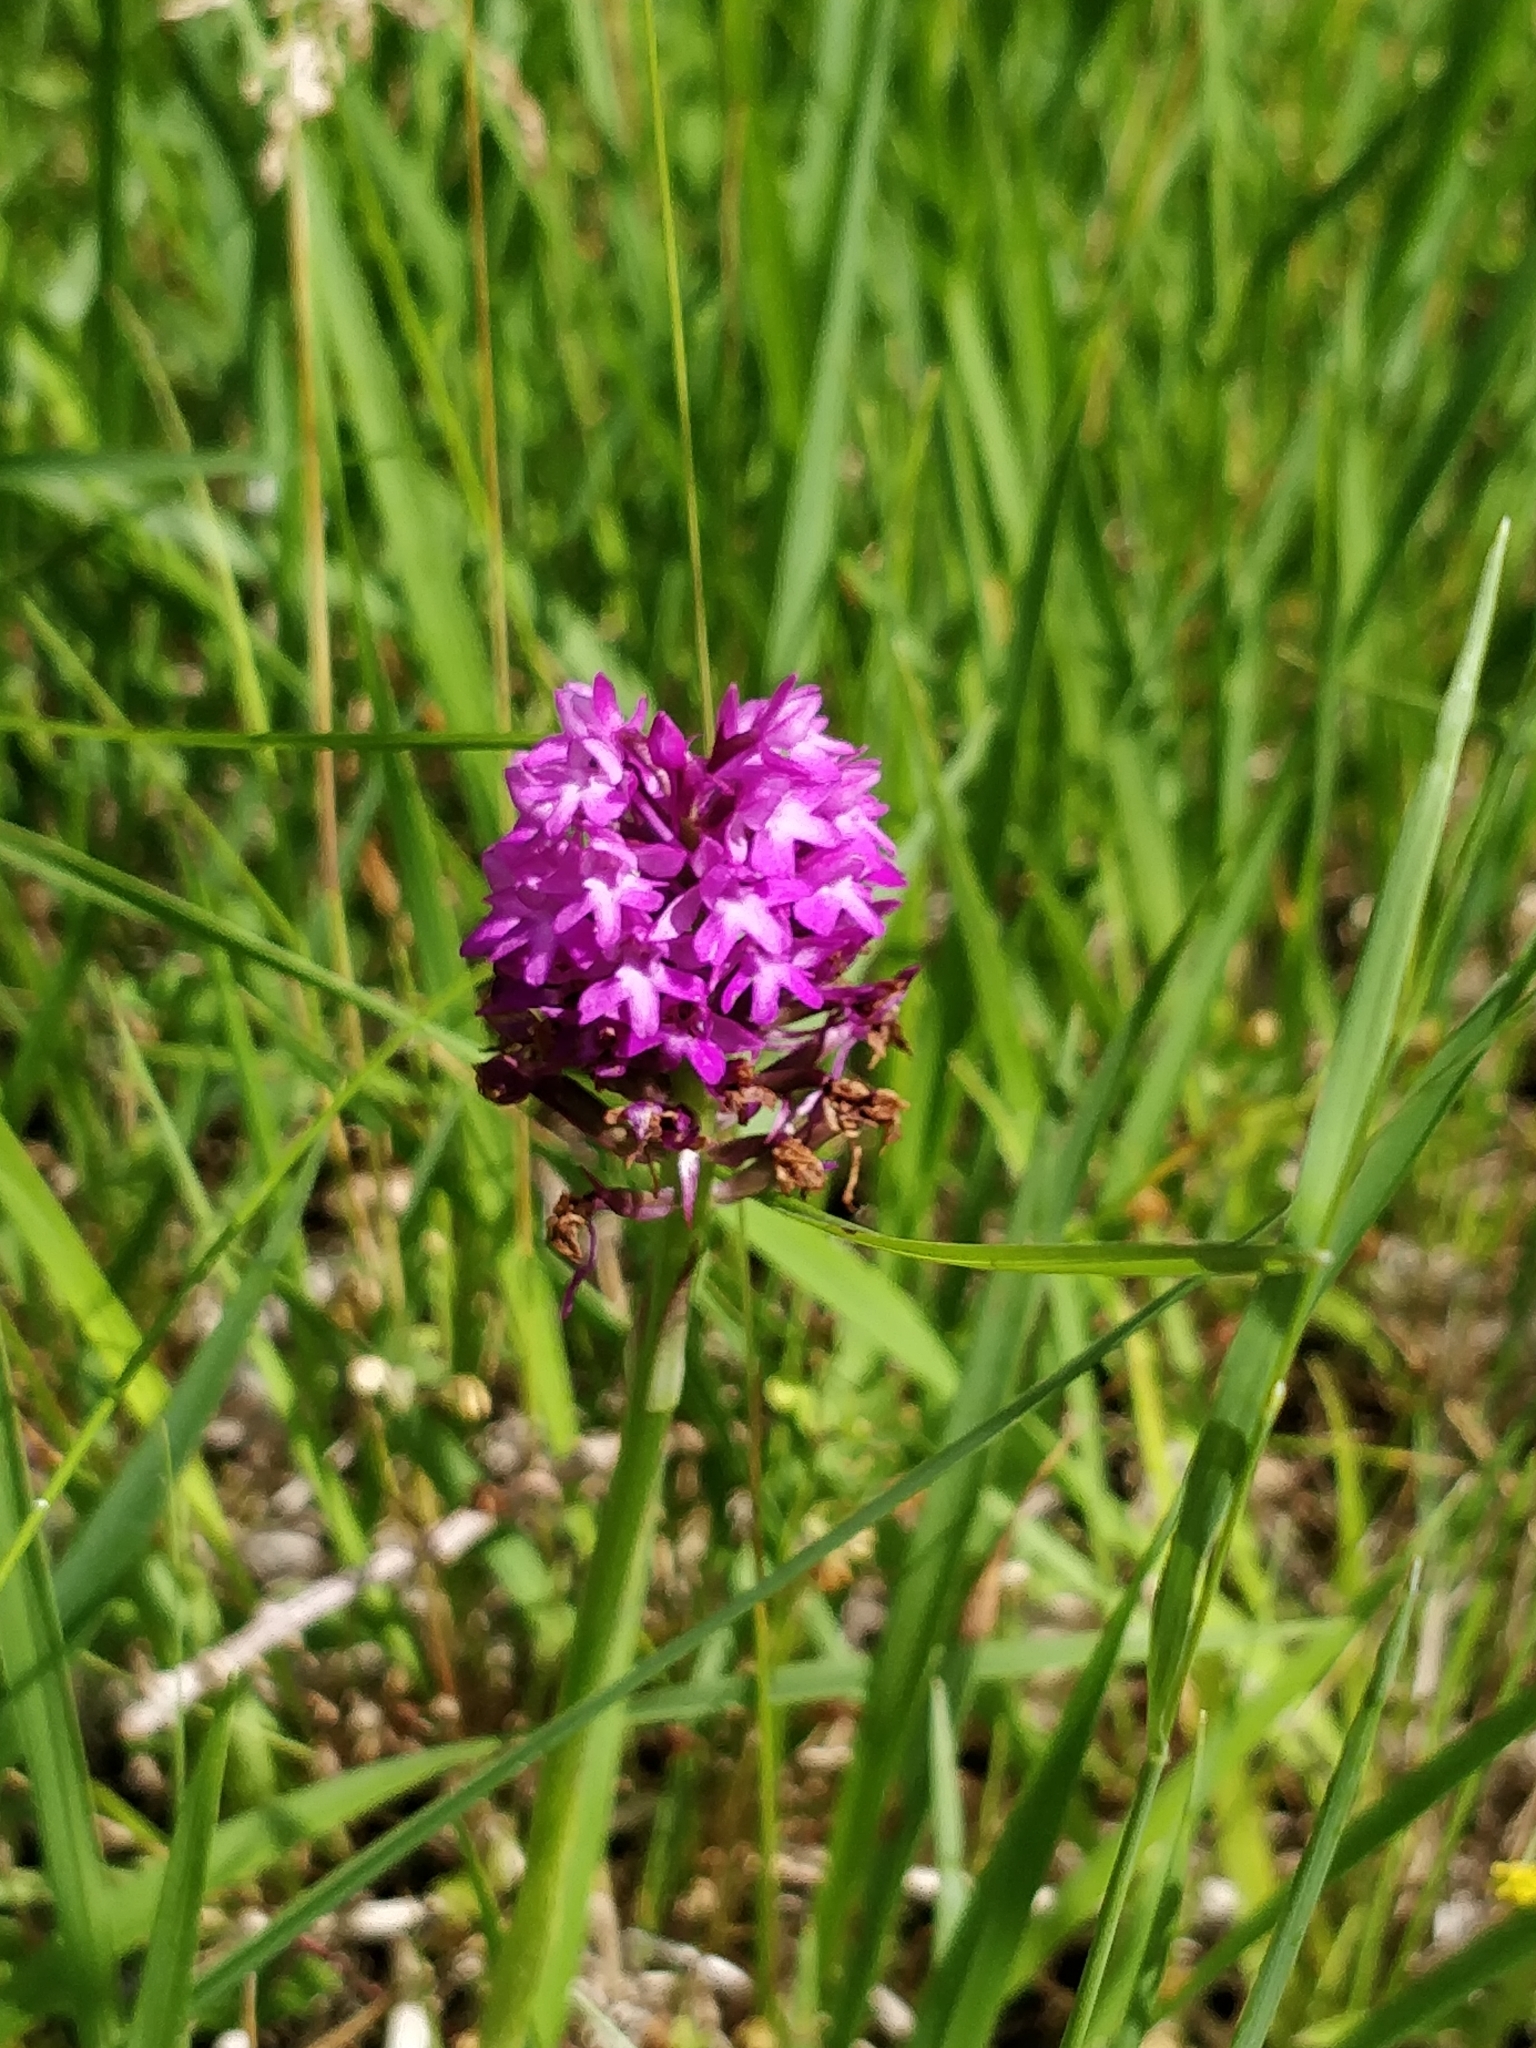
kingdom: Plantae
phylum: Tracheophyta
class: Liliopsida
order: Asparagales
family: Orchidaceae
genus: Anacamptis
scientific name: Anacamptis pyramidalis
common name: Pyramidal orchid
